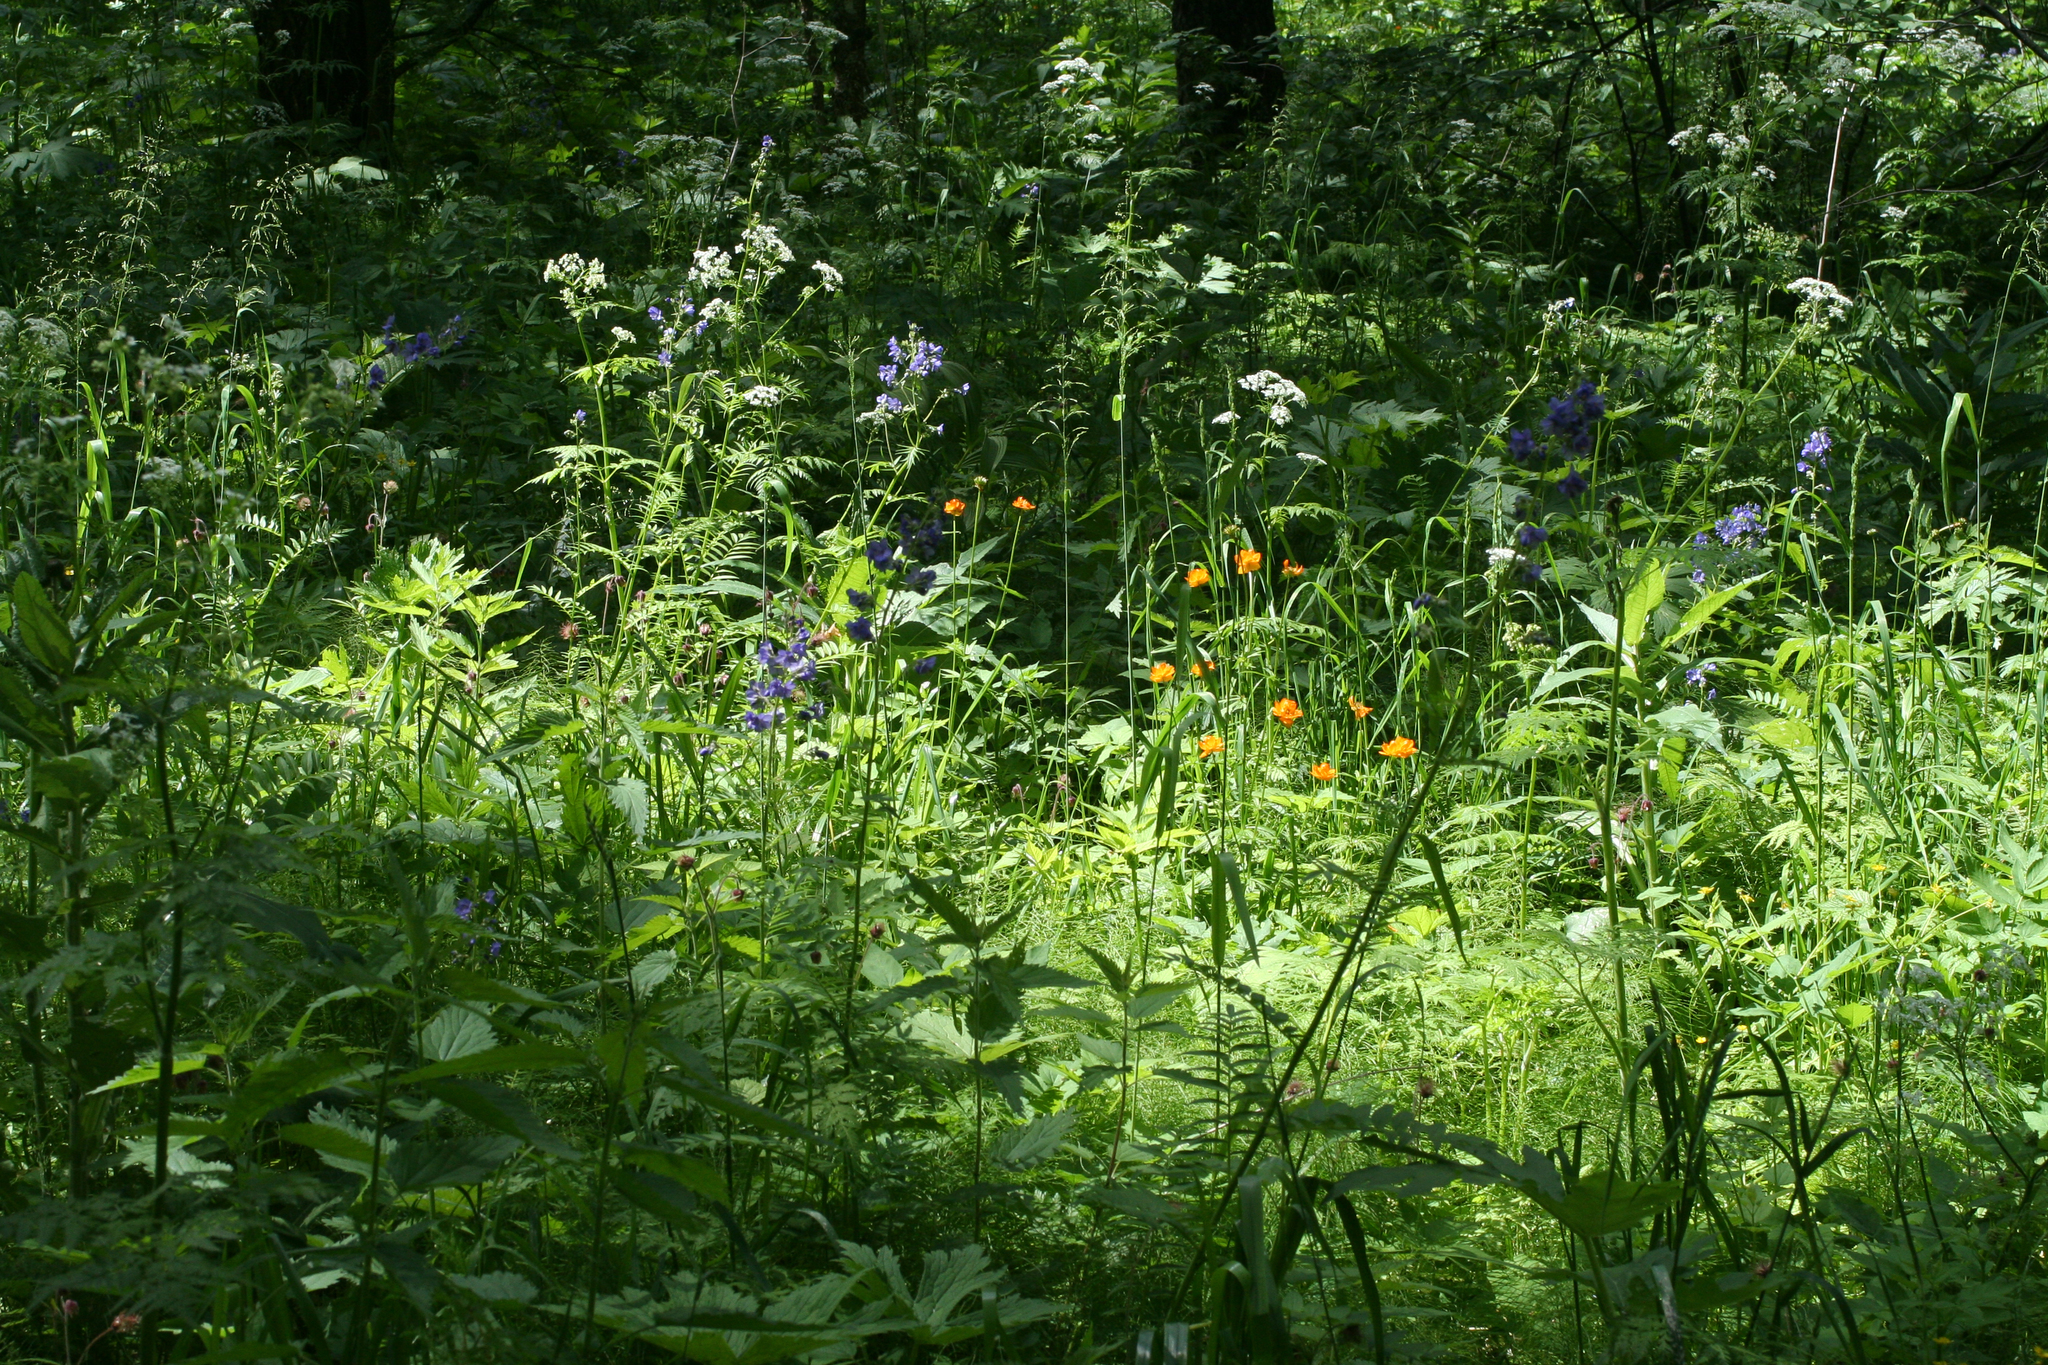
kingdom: Plantae
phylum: Tracheophyta
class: Magnoliopsida
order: Ranunculales
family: Ranunculaceae
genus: Trollius
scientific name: Trollius asiaticus
